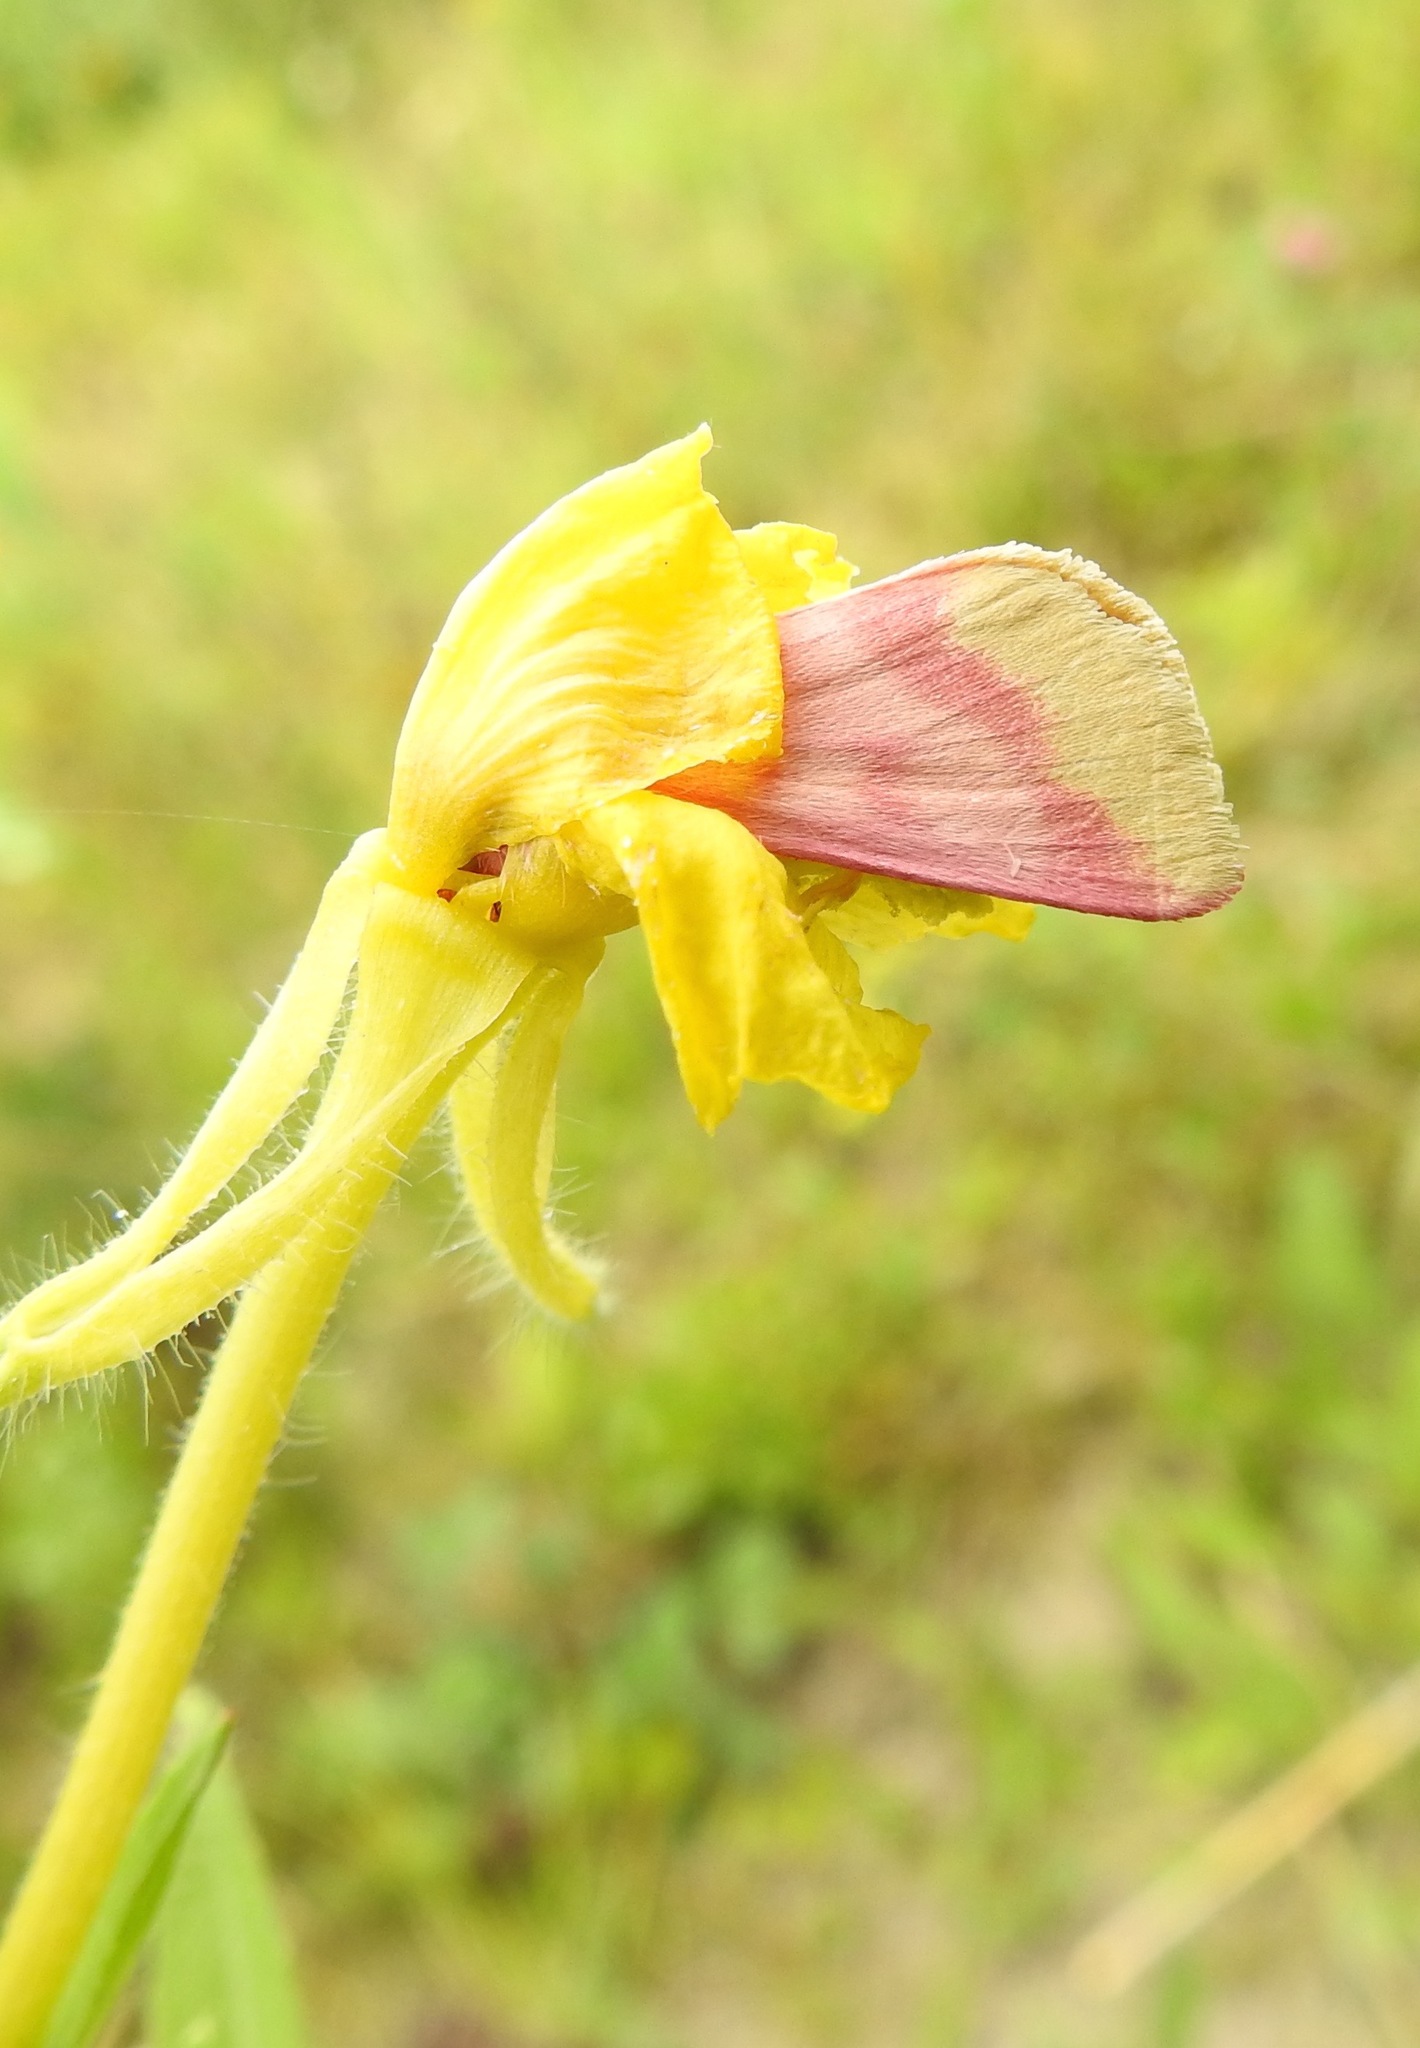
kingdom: Animalia
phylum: Arthropoda
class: Insecta
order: Lepidoptera
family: Noctuidae
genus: Schinia
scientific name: Schinia florida
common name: Primrose moth
